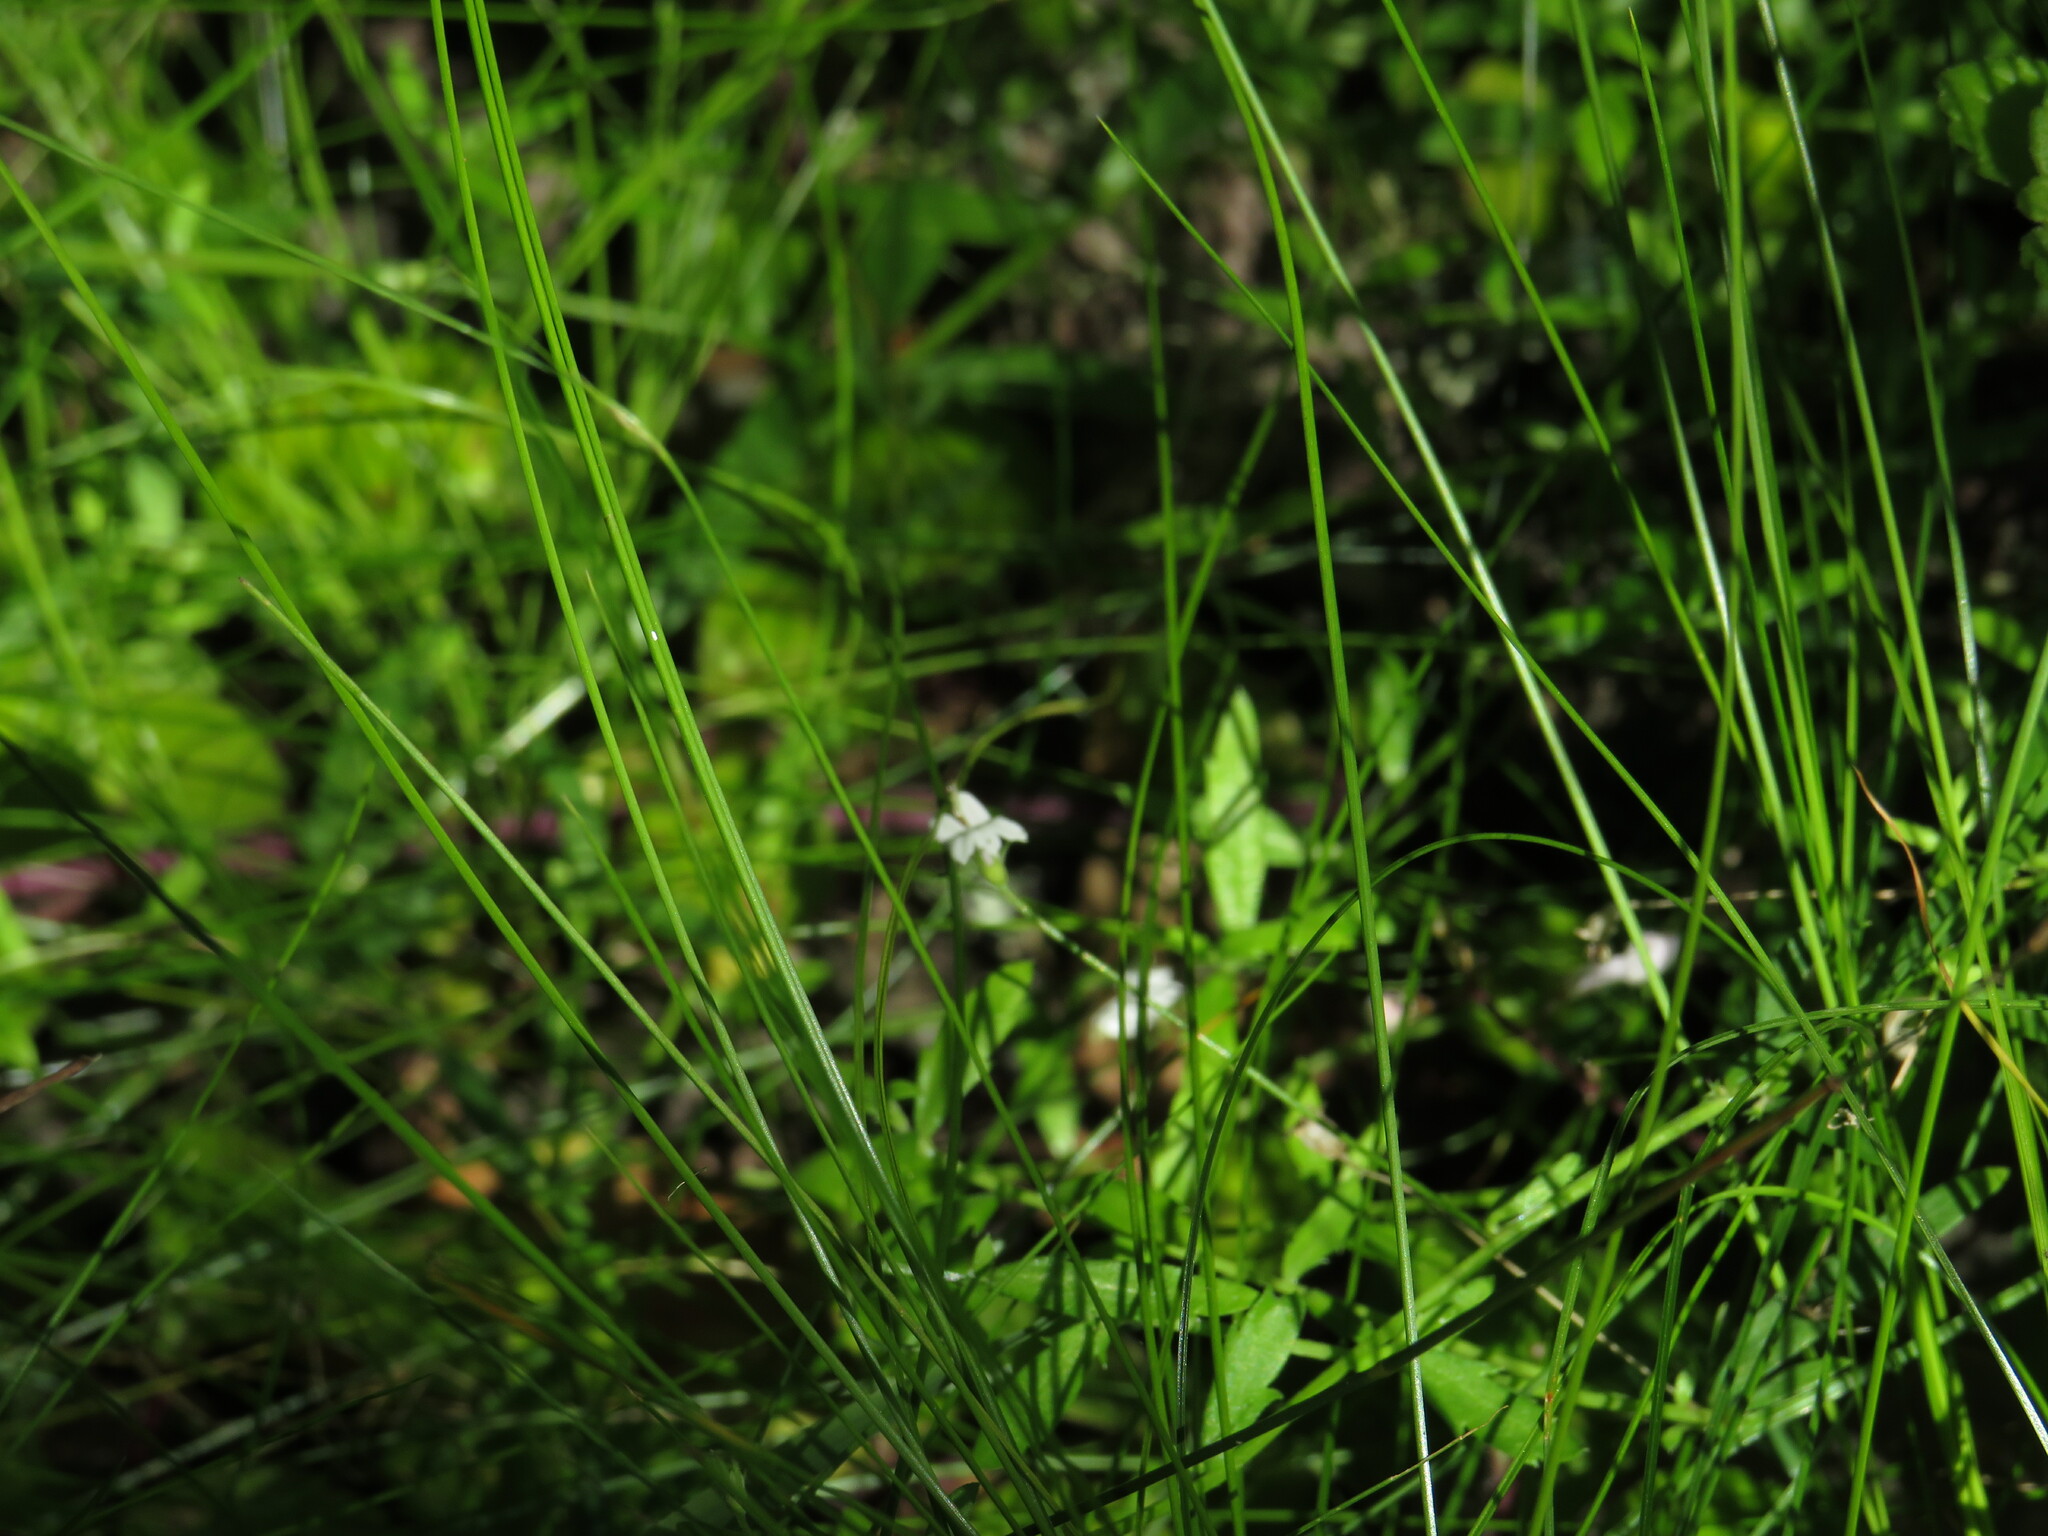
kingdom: Plantae
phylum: Tracheophyta
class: Magnoliopsida
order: Asterales
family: Campanulaceae
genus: Monopsis
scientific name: Monopsis alba
